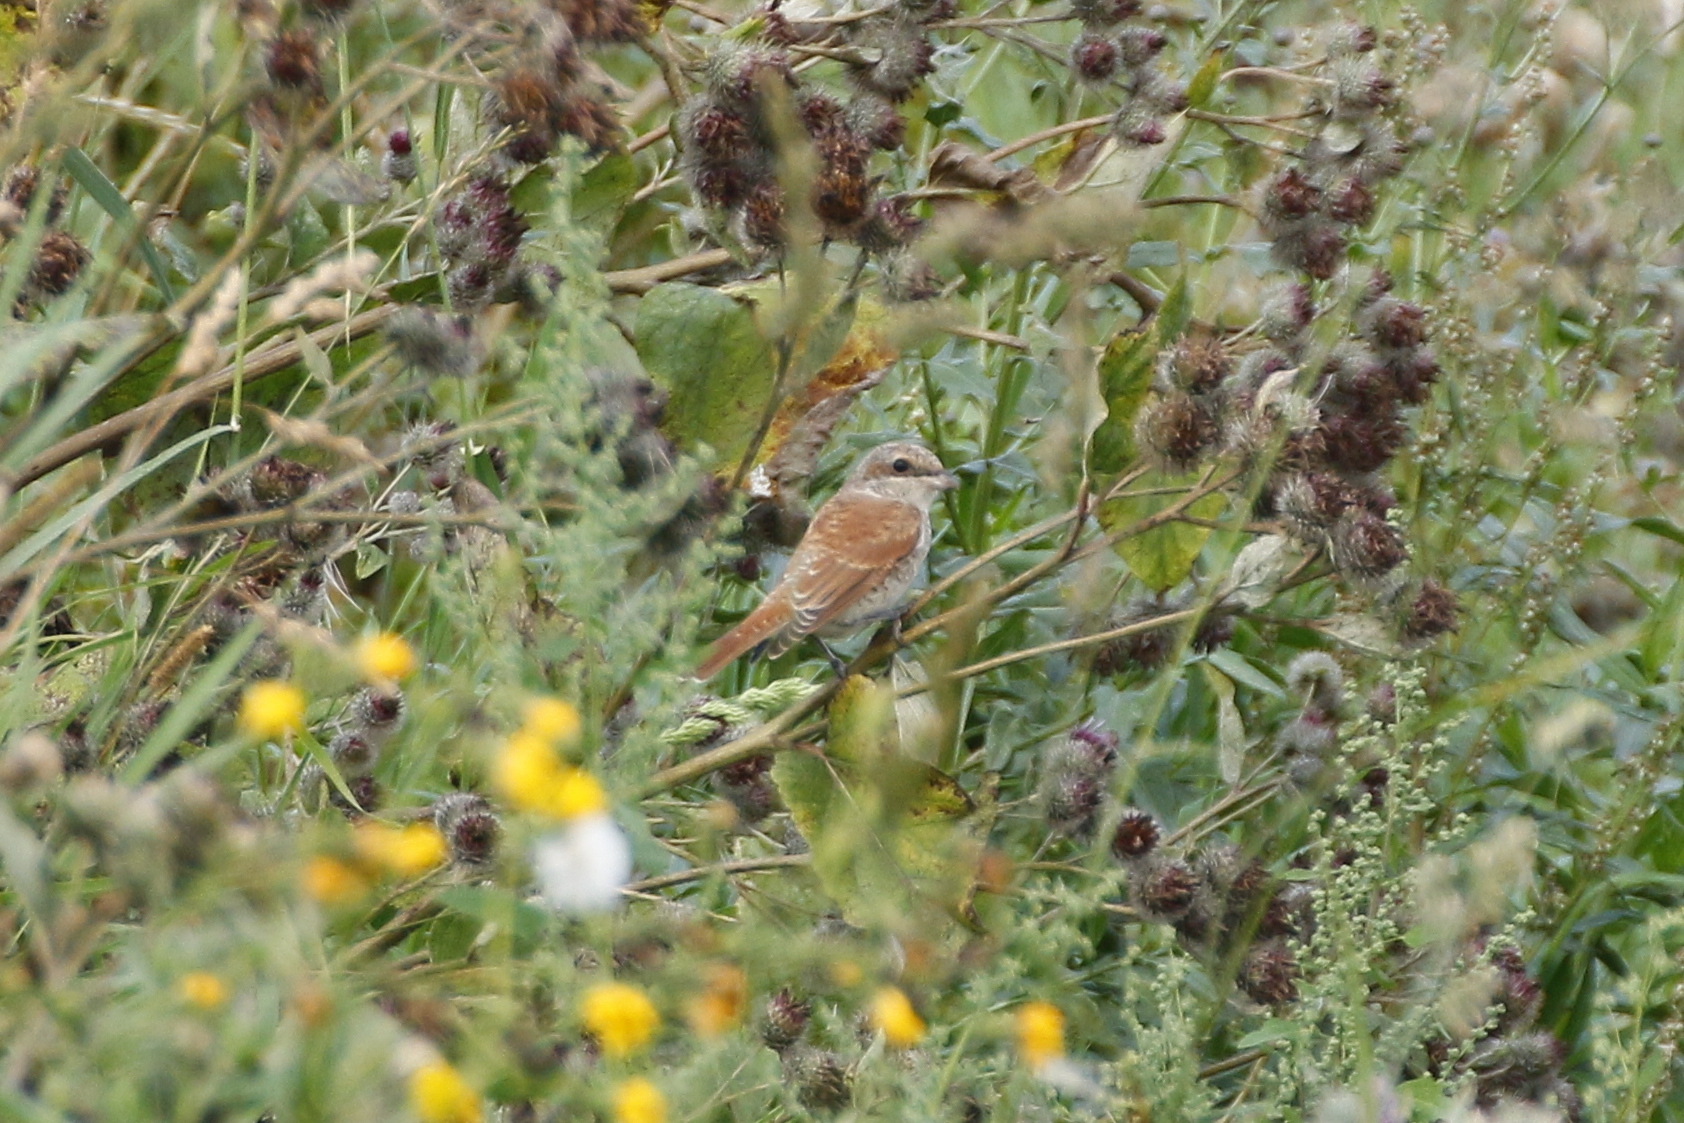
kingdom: Animalia
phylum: Chordata
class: Aves
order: Passeriformes
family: Laniidae
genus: Lanius
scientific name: Lanius collurio
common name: Red-backed shrike
